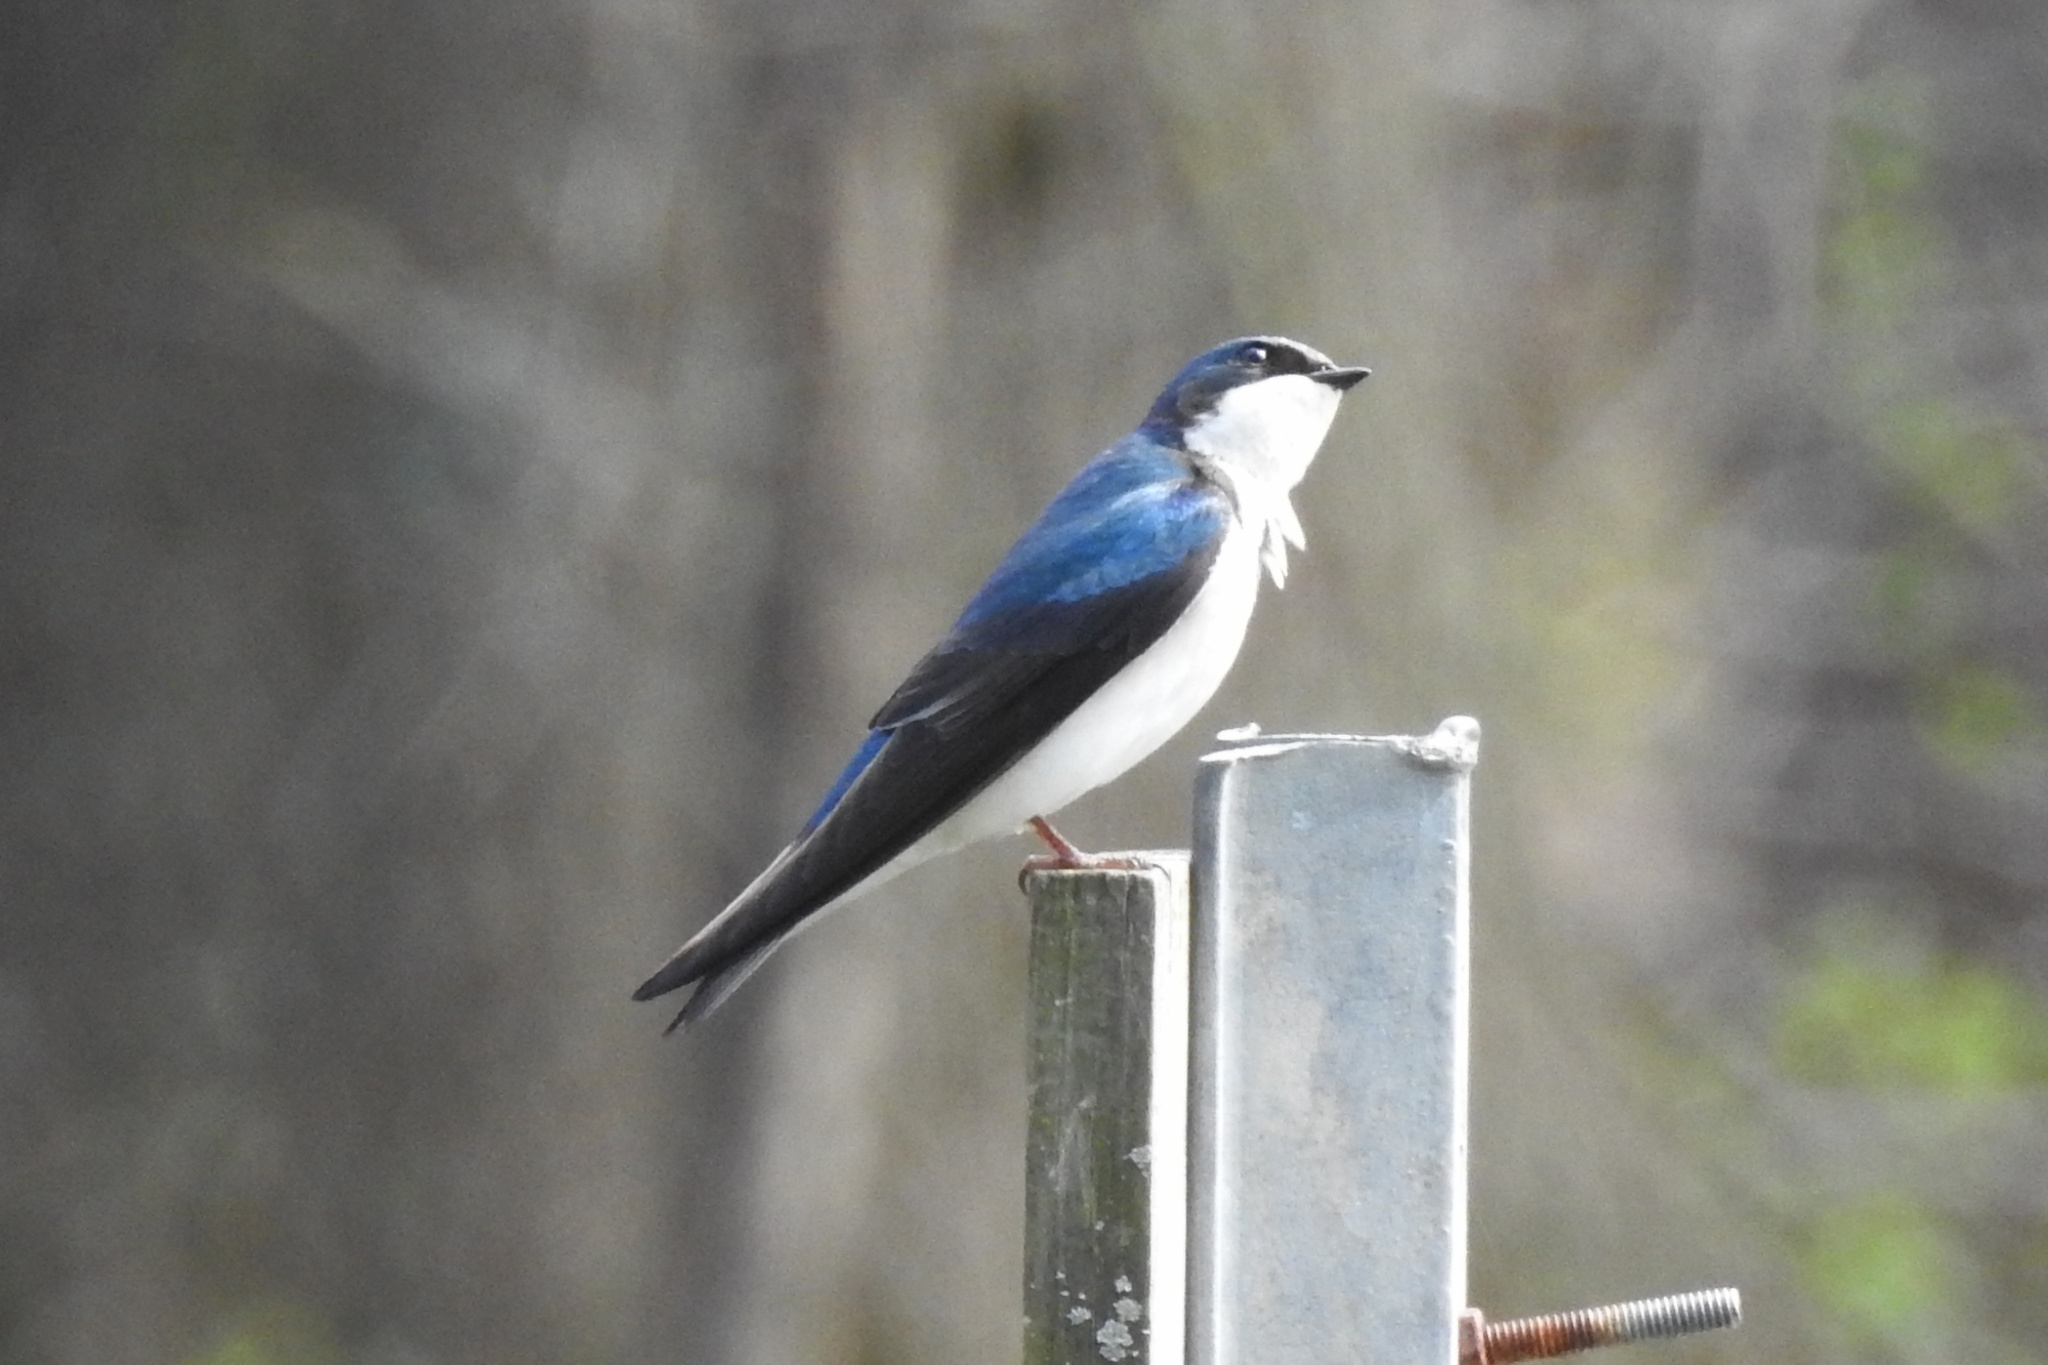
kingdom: Animalia
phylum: Chordata
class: Aves
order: Passeriformes
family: Hirundinidae
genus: Tachycineta
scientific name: Tachycineta bicolor
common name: Tree swallow
